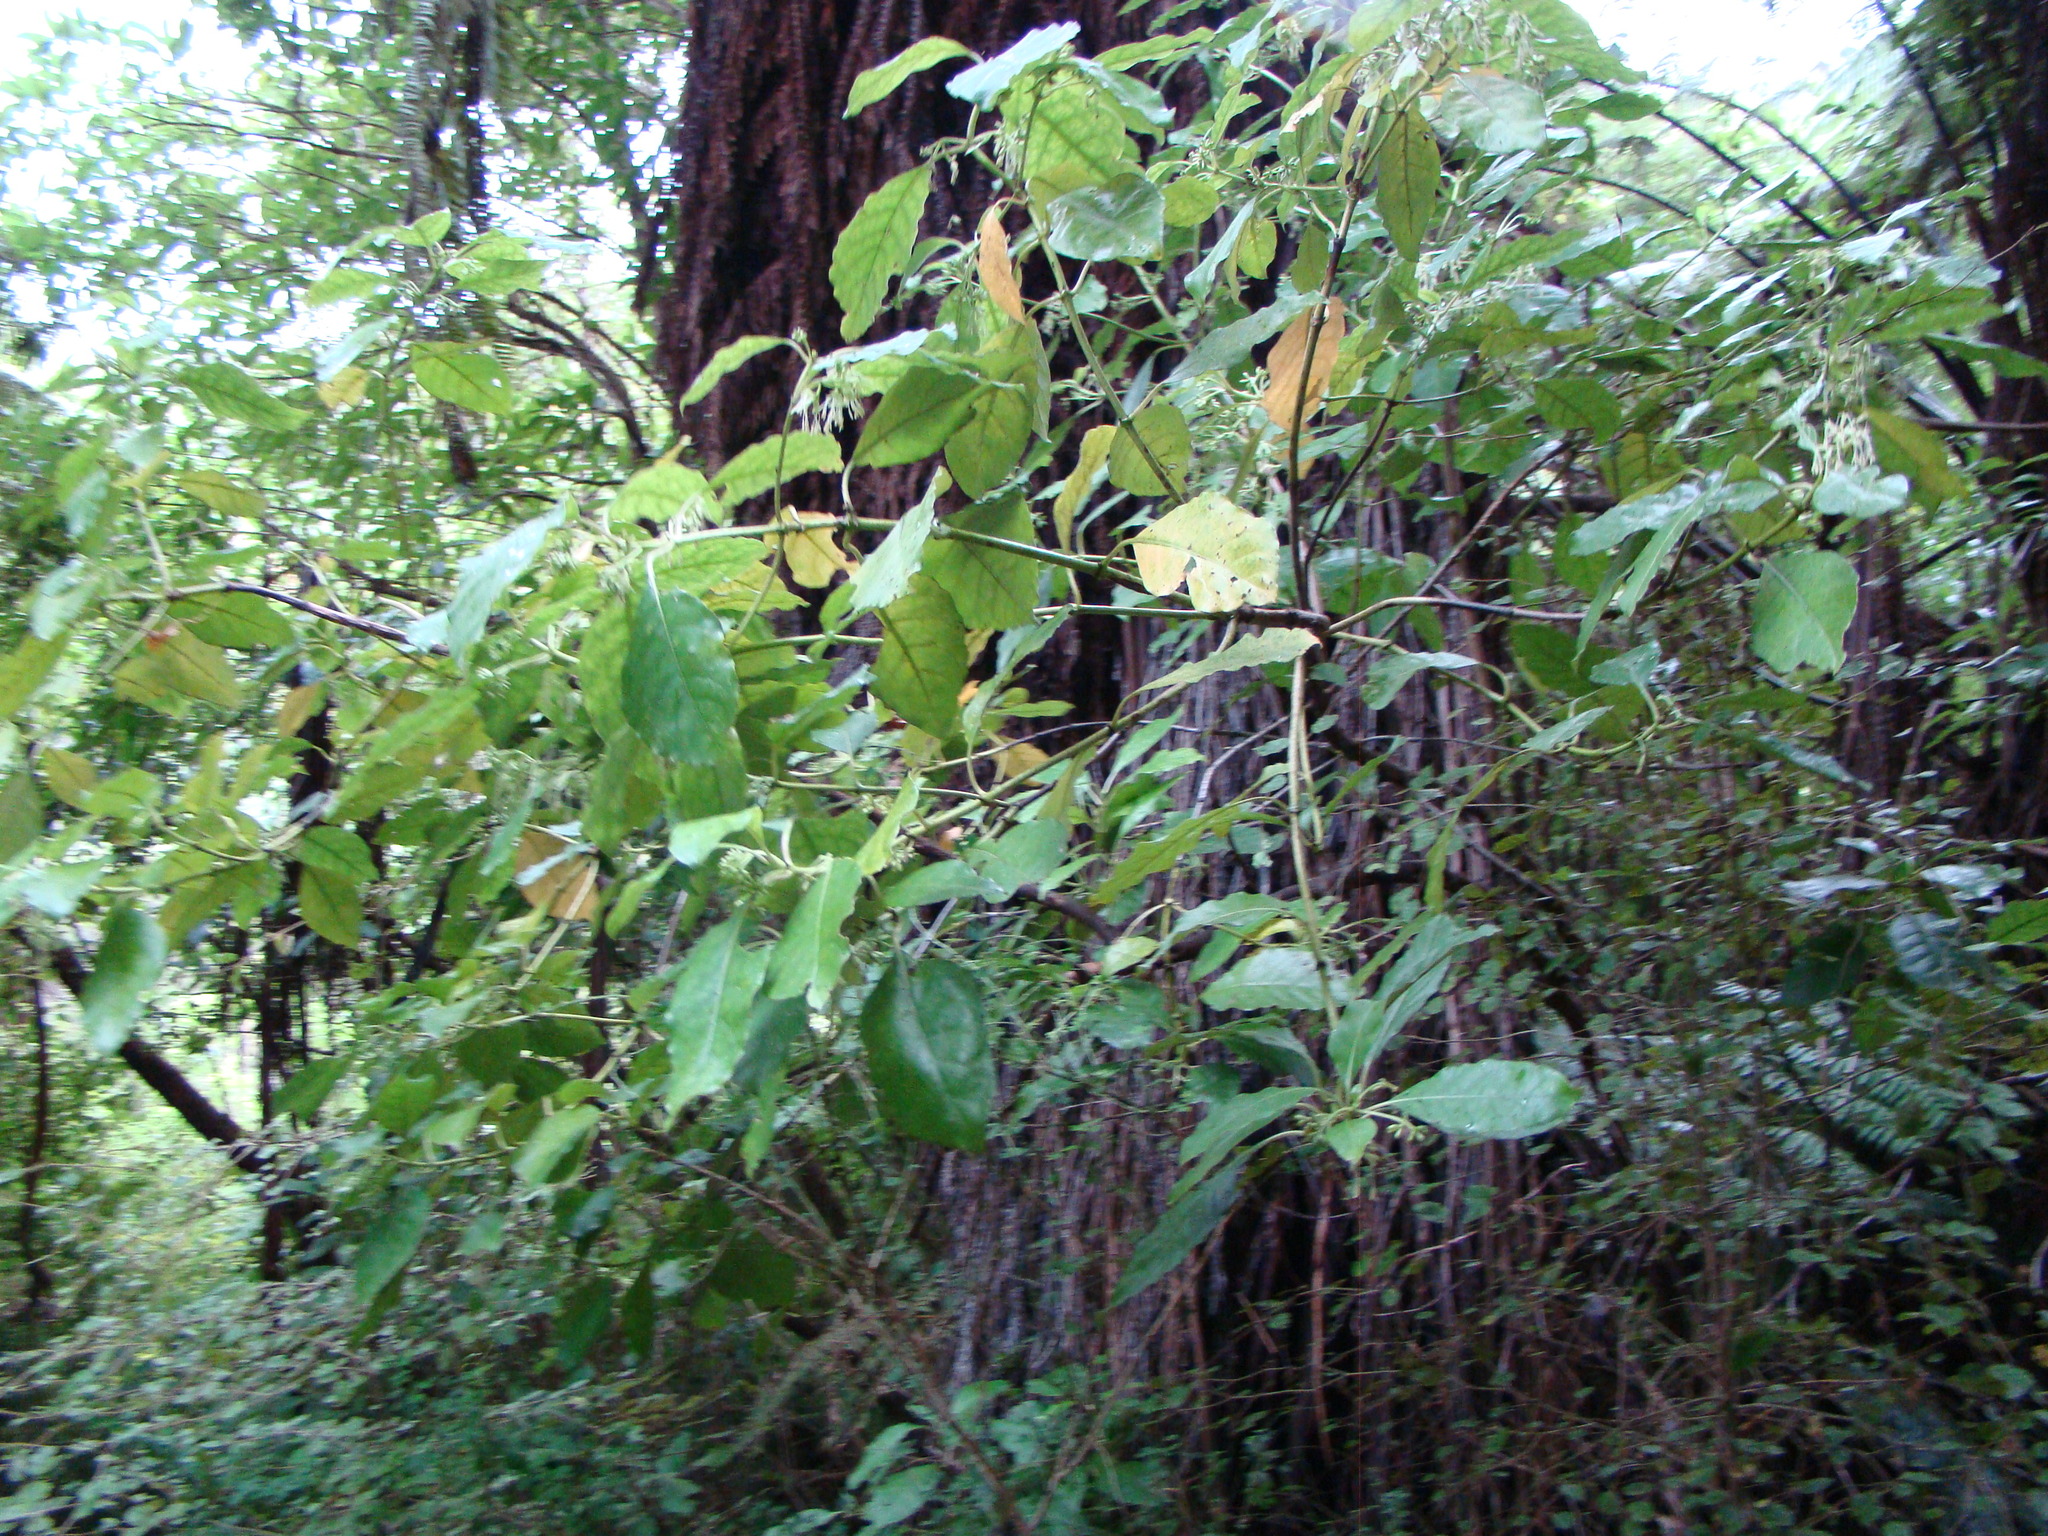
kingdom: Plantae
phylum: Tracheophyta
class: Magnoliopsida
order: Gentianales
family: Rubiaceae
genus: Coprosma
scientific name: Coprosma autumnalis
